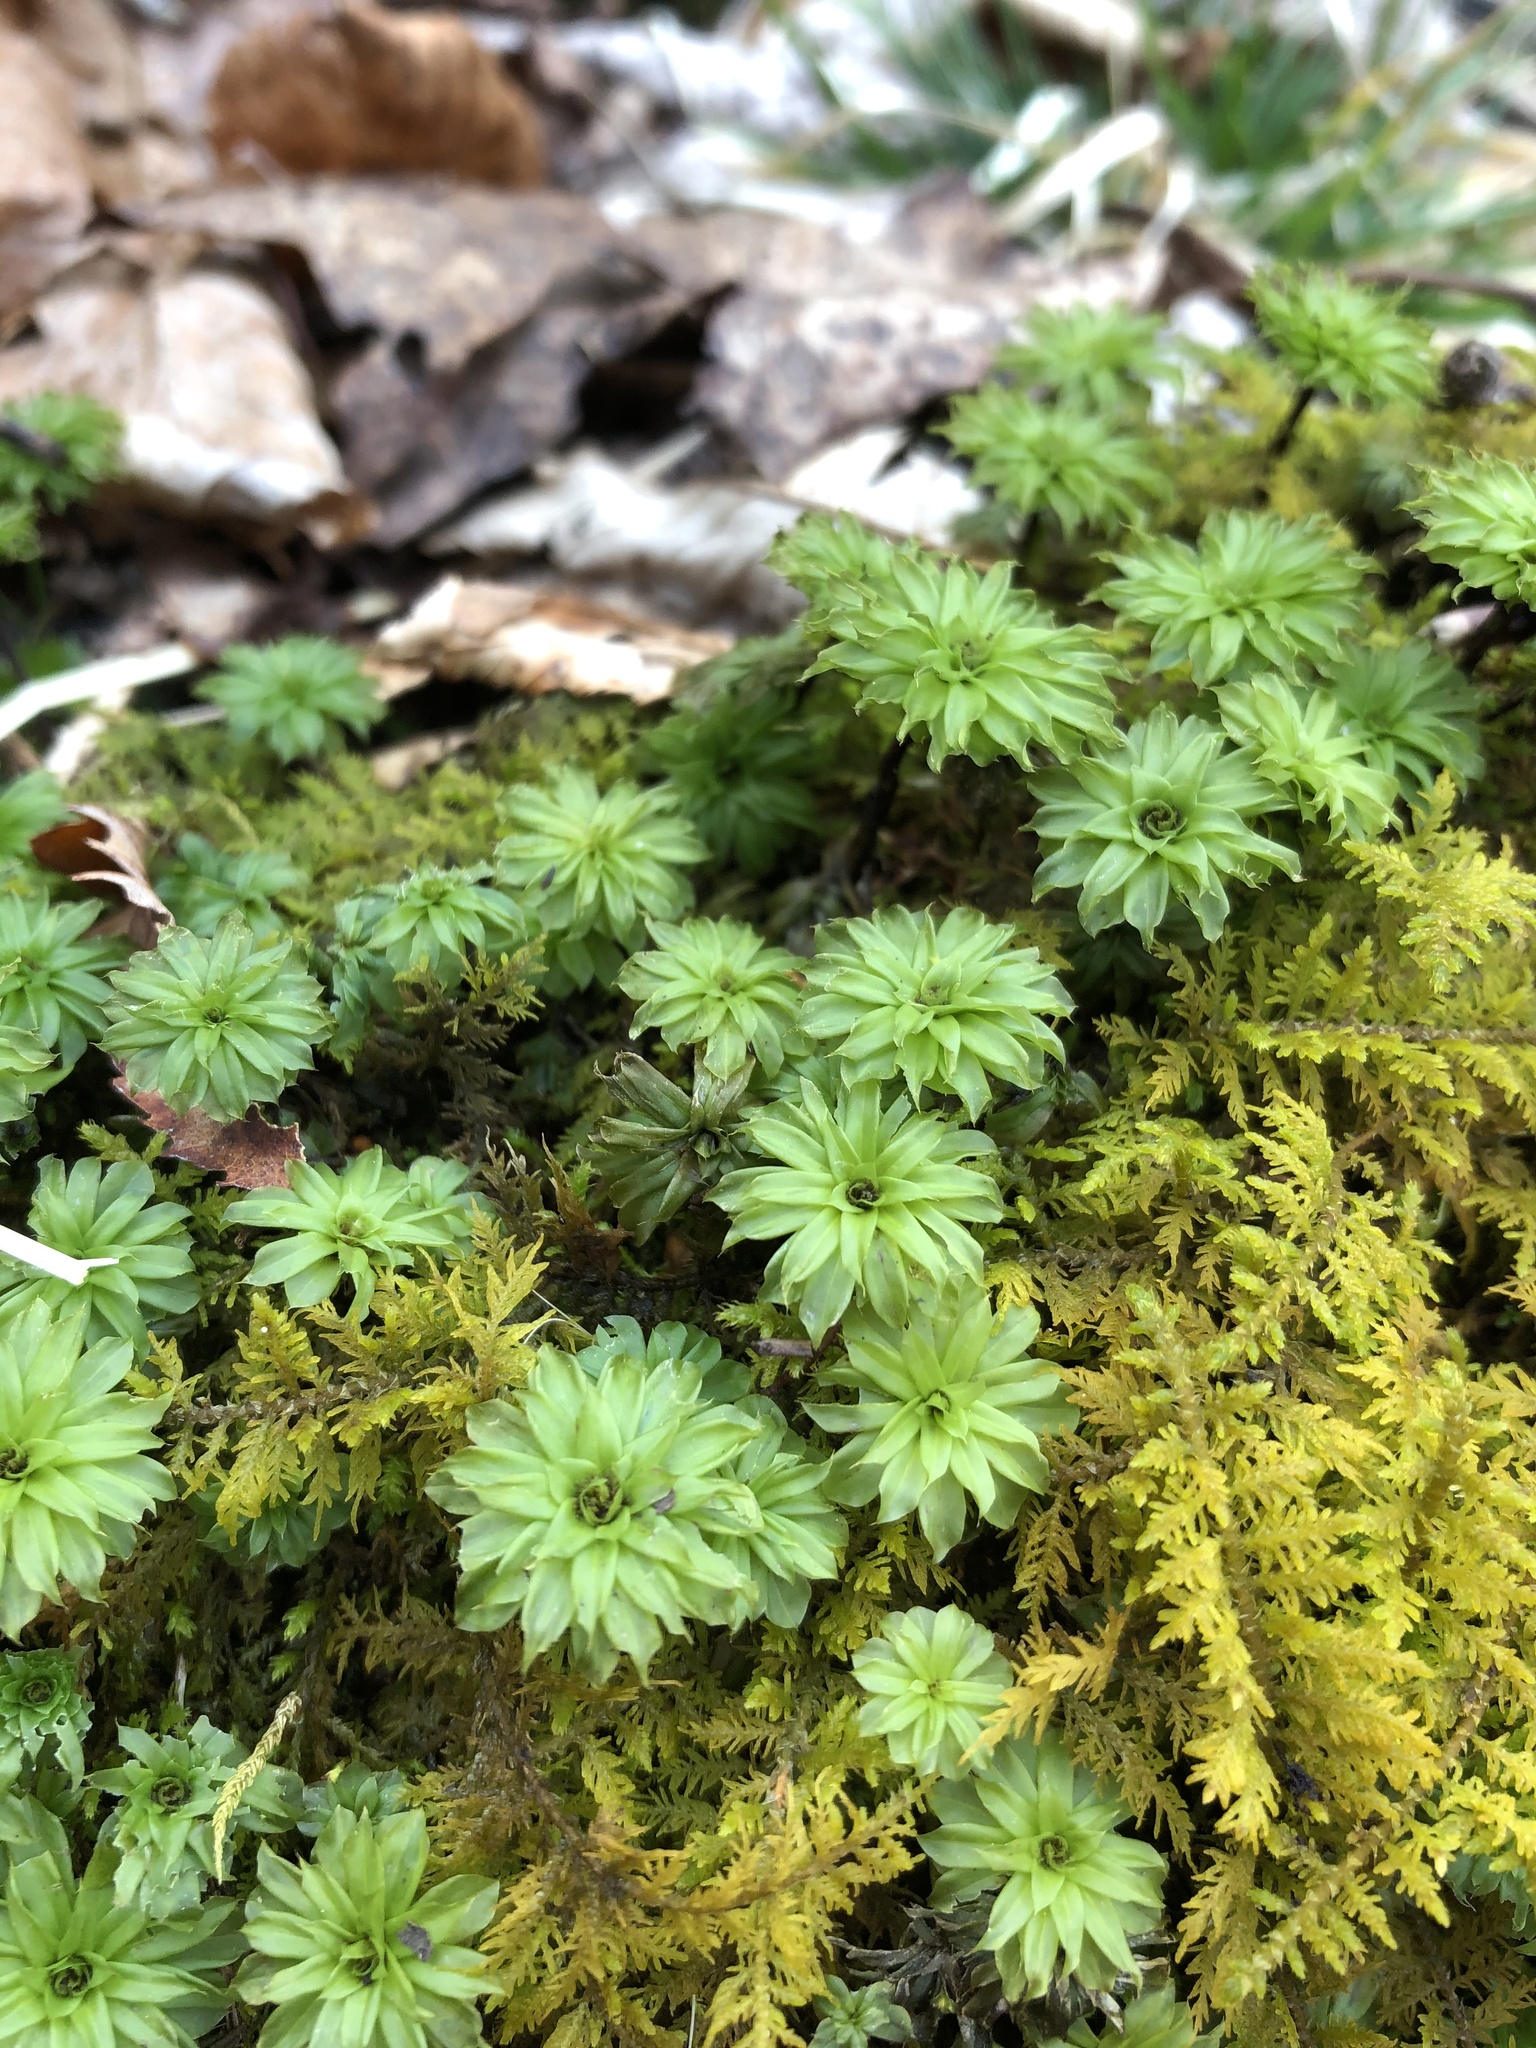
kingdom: Plantae
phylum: Bryophyta
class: Bryopsida
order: Bryales
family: Bryaceae
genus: Rhodobryum
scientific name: Rhodobryum ontariense
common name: Ontario rhodobryum moss
